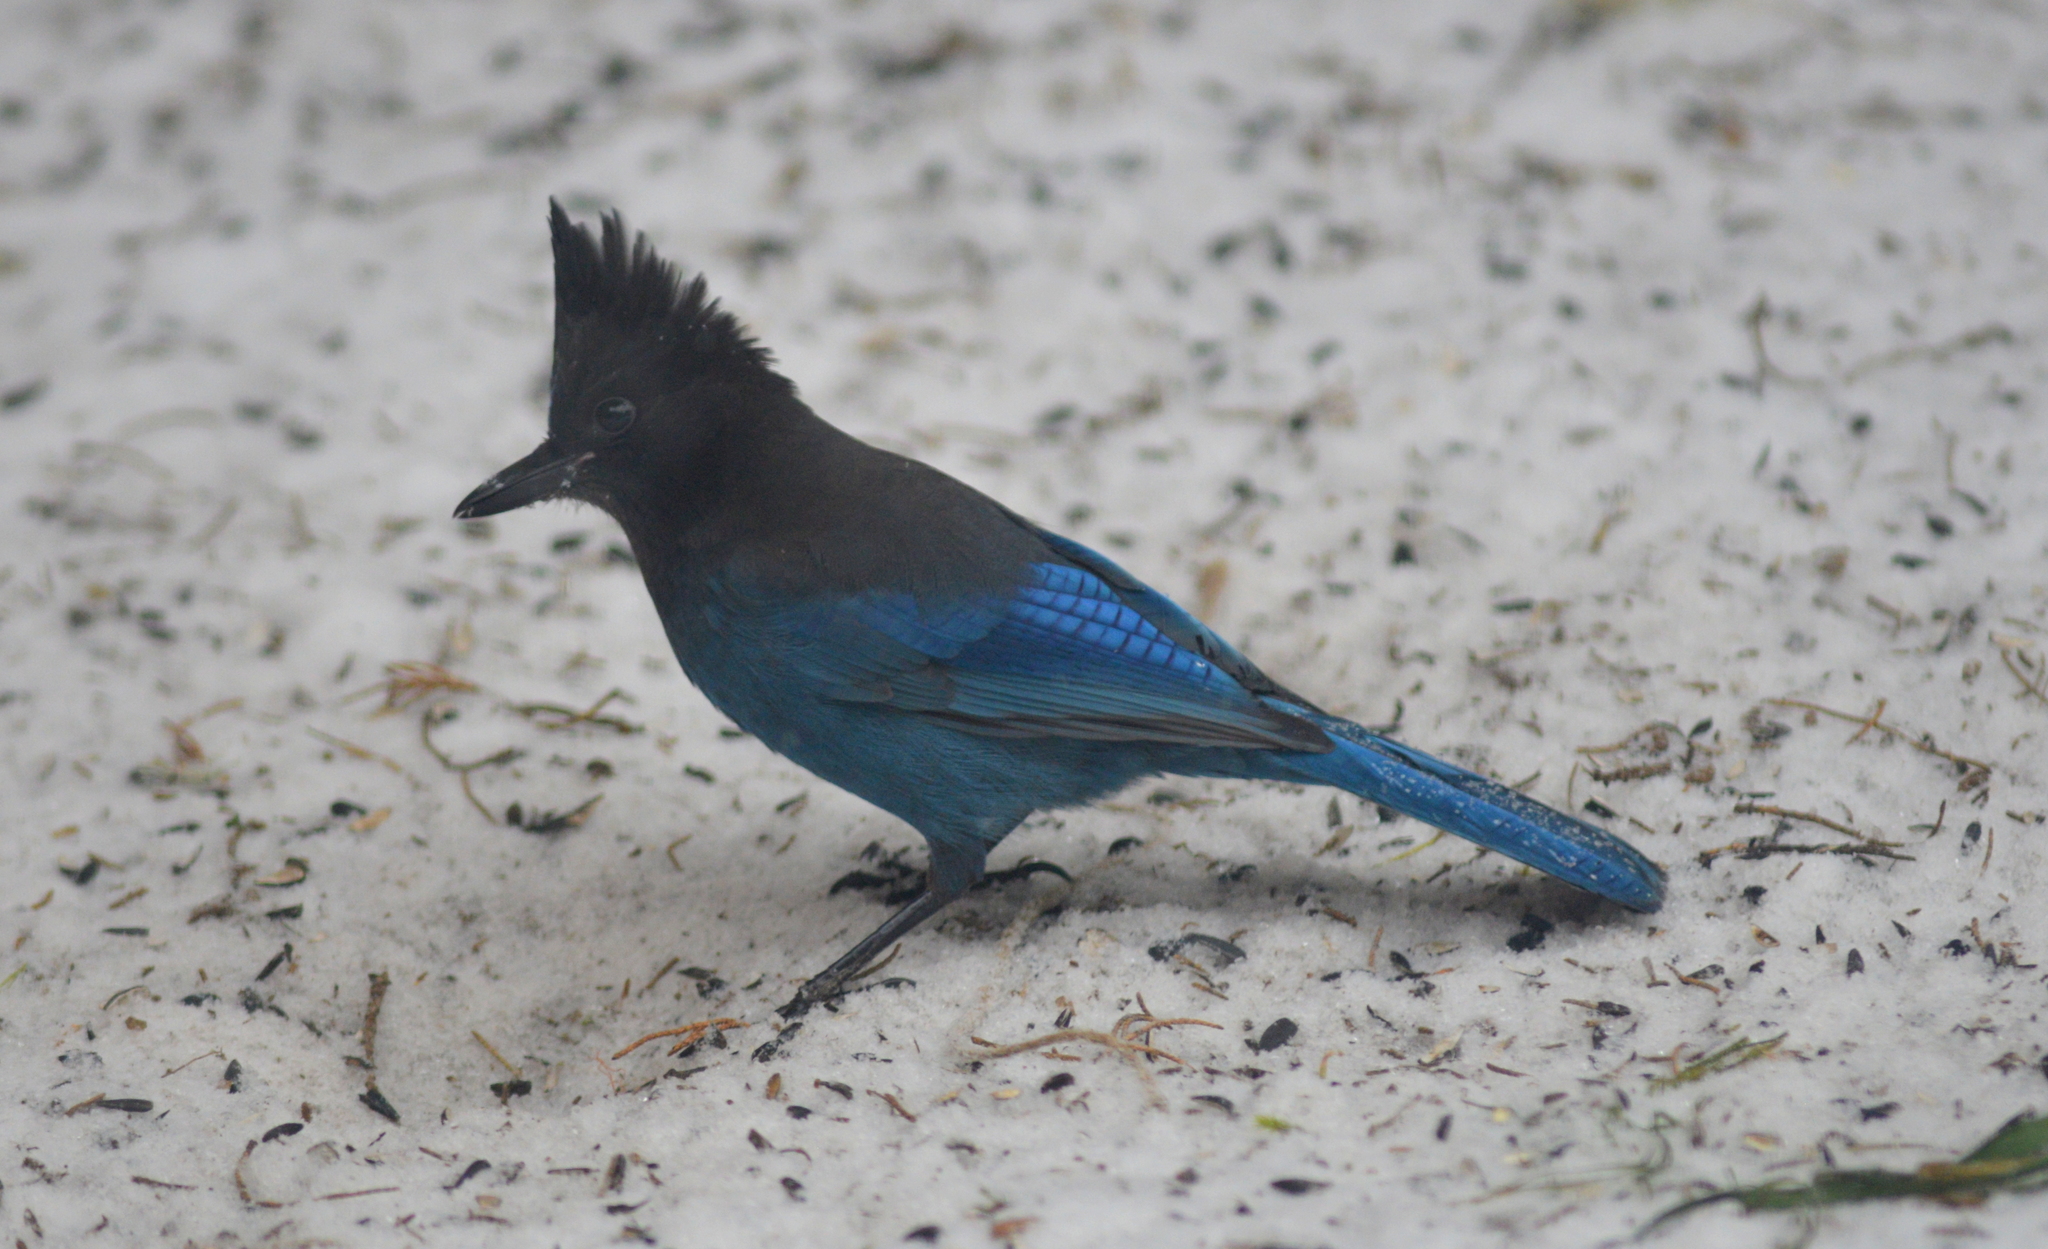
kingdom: Animalia
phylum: Chordata
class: Aves
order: Passeriformes
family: Corvidae
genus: Cyanocitta
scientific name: Cyanocitta stelleri
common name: Steller's jay
